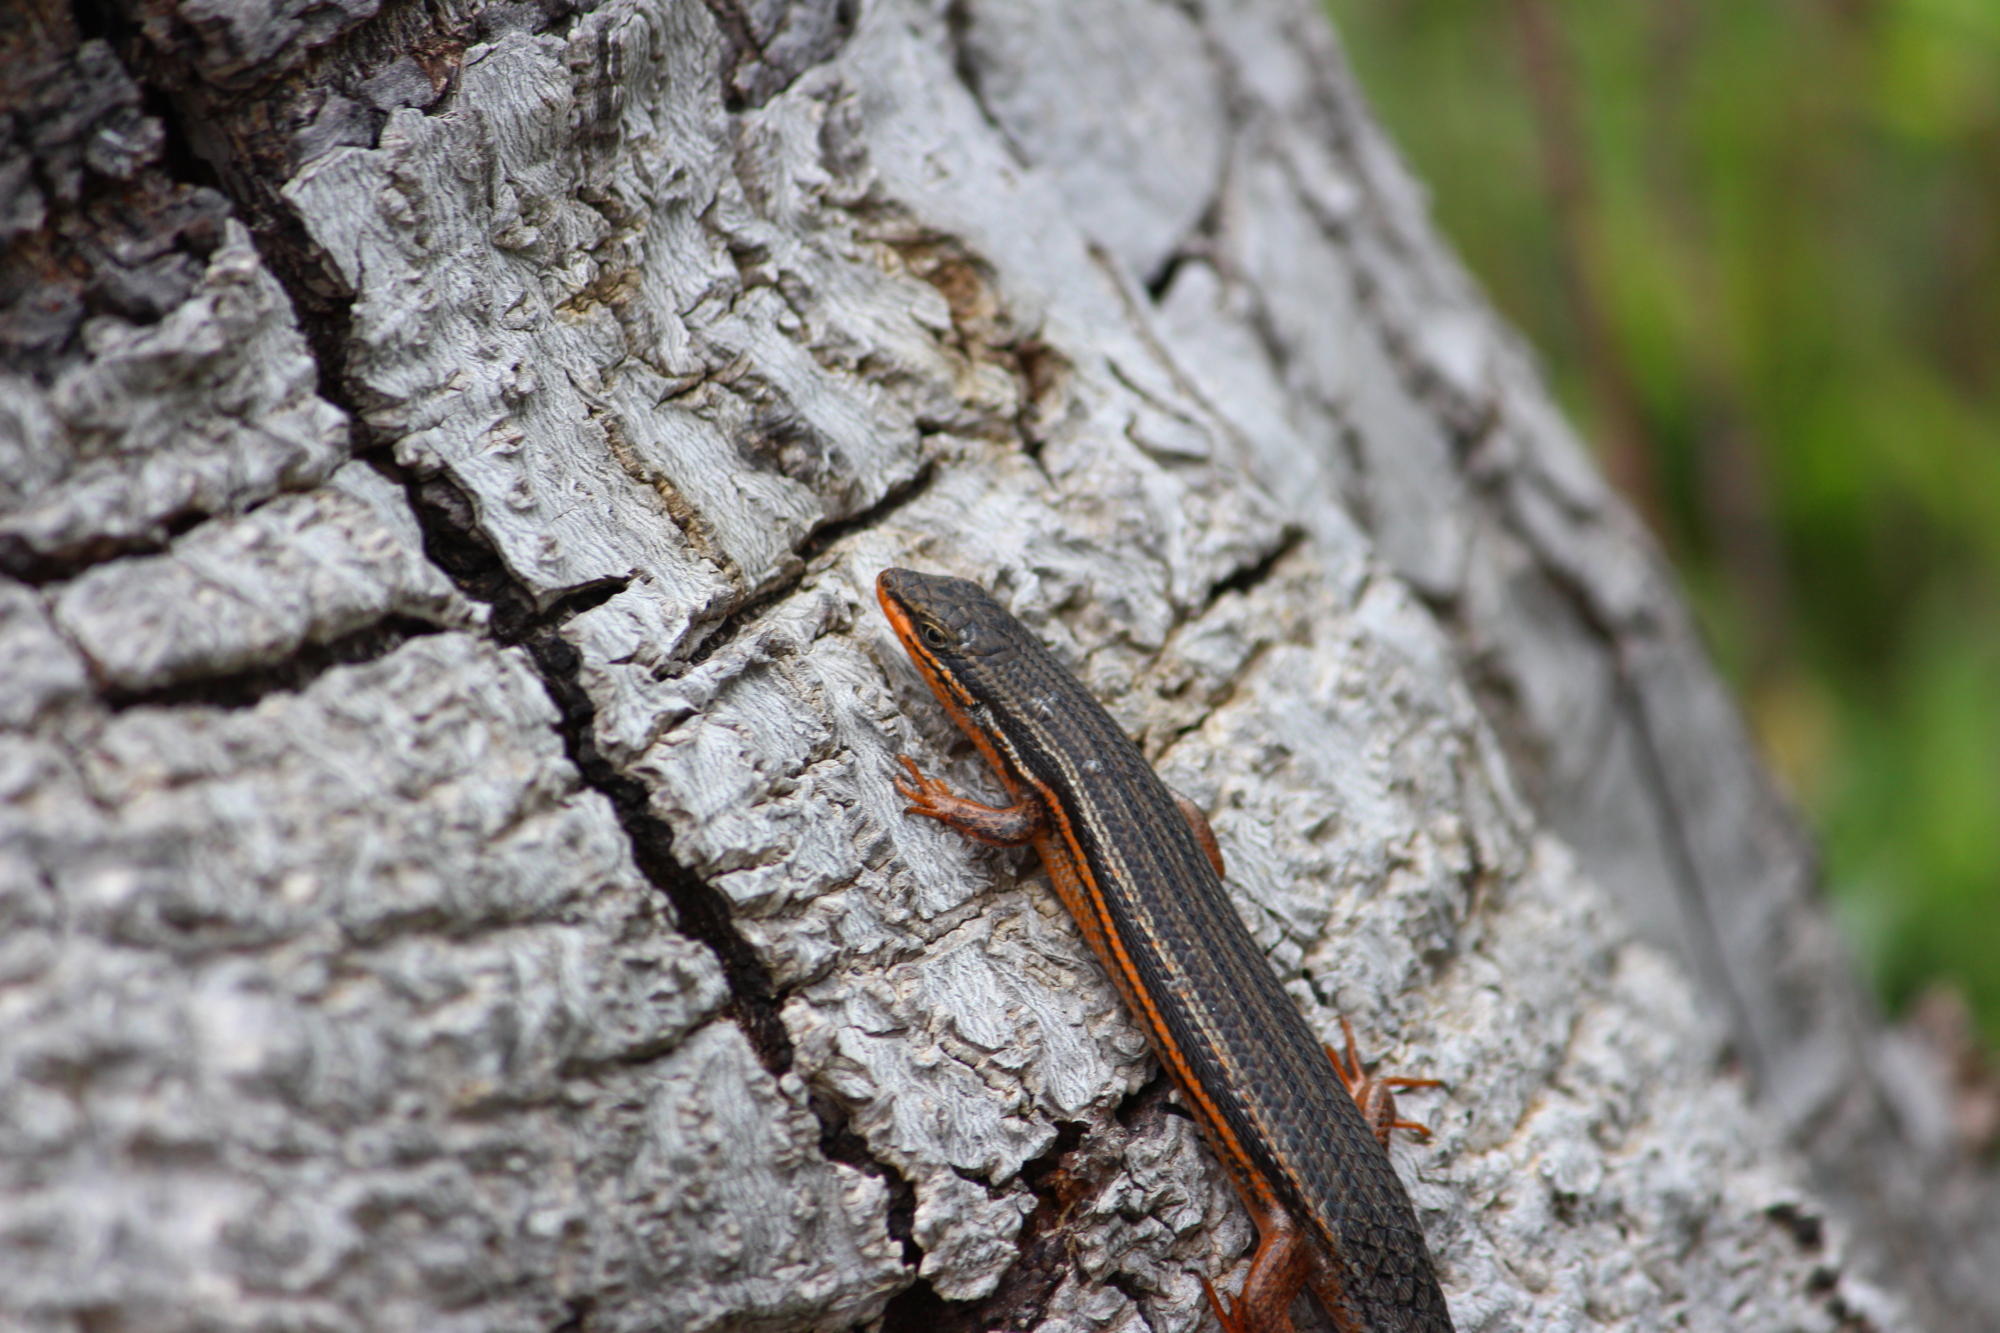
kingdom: Animalia
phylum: Chordata
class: Squamata
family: Scincidae
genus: Trachylepis
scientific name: Trachylepis homalocephala
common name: Red-sided skink
